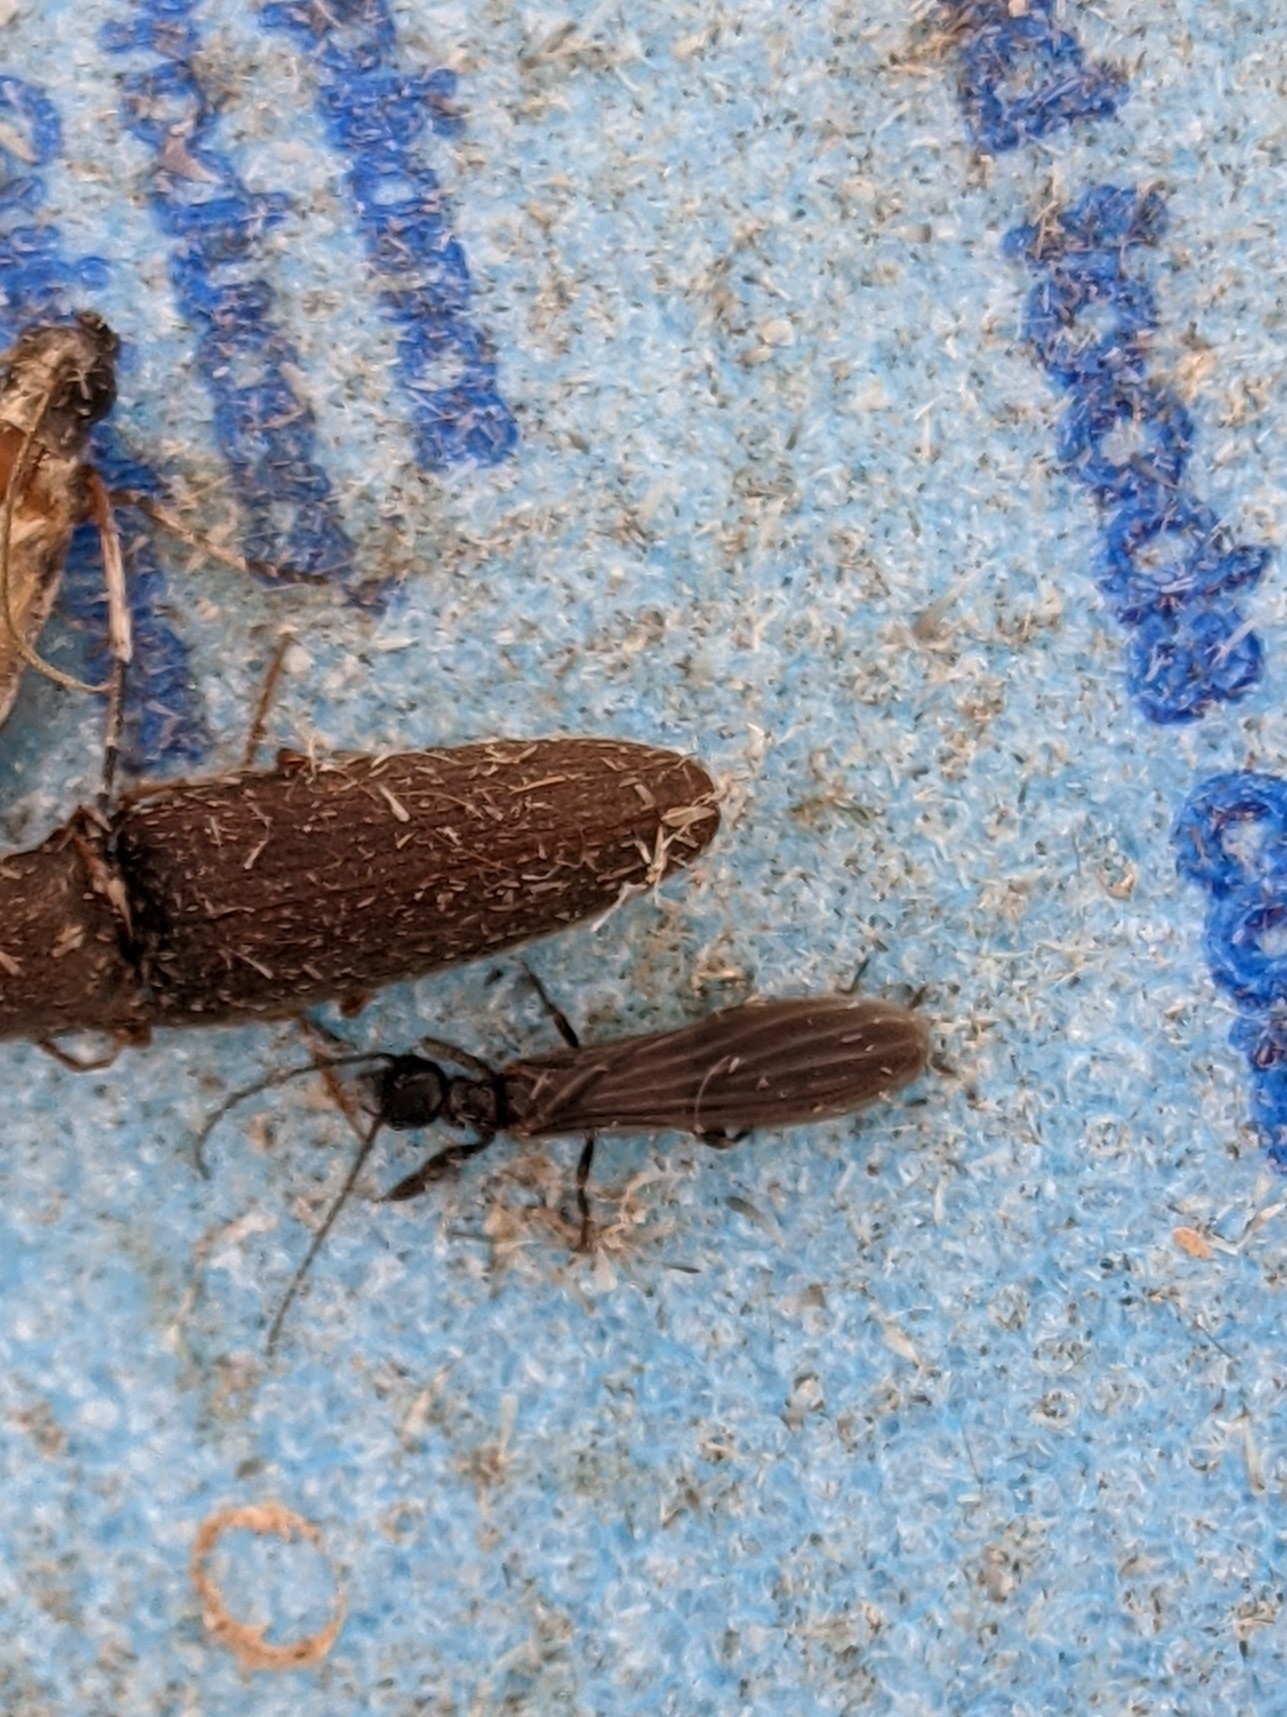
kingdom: Animalia
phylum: Arthropoda
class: Insecta
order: Embioptera
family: Oligotomidae
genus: Oligotoma
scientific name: Oligotoma nigra
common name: Black webspinner
